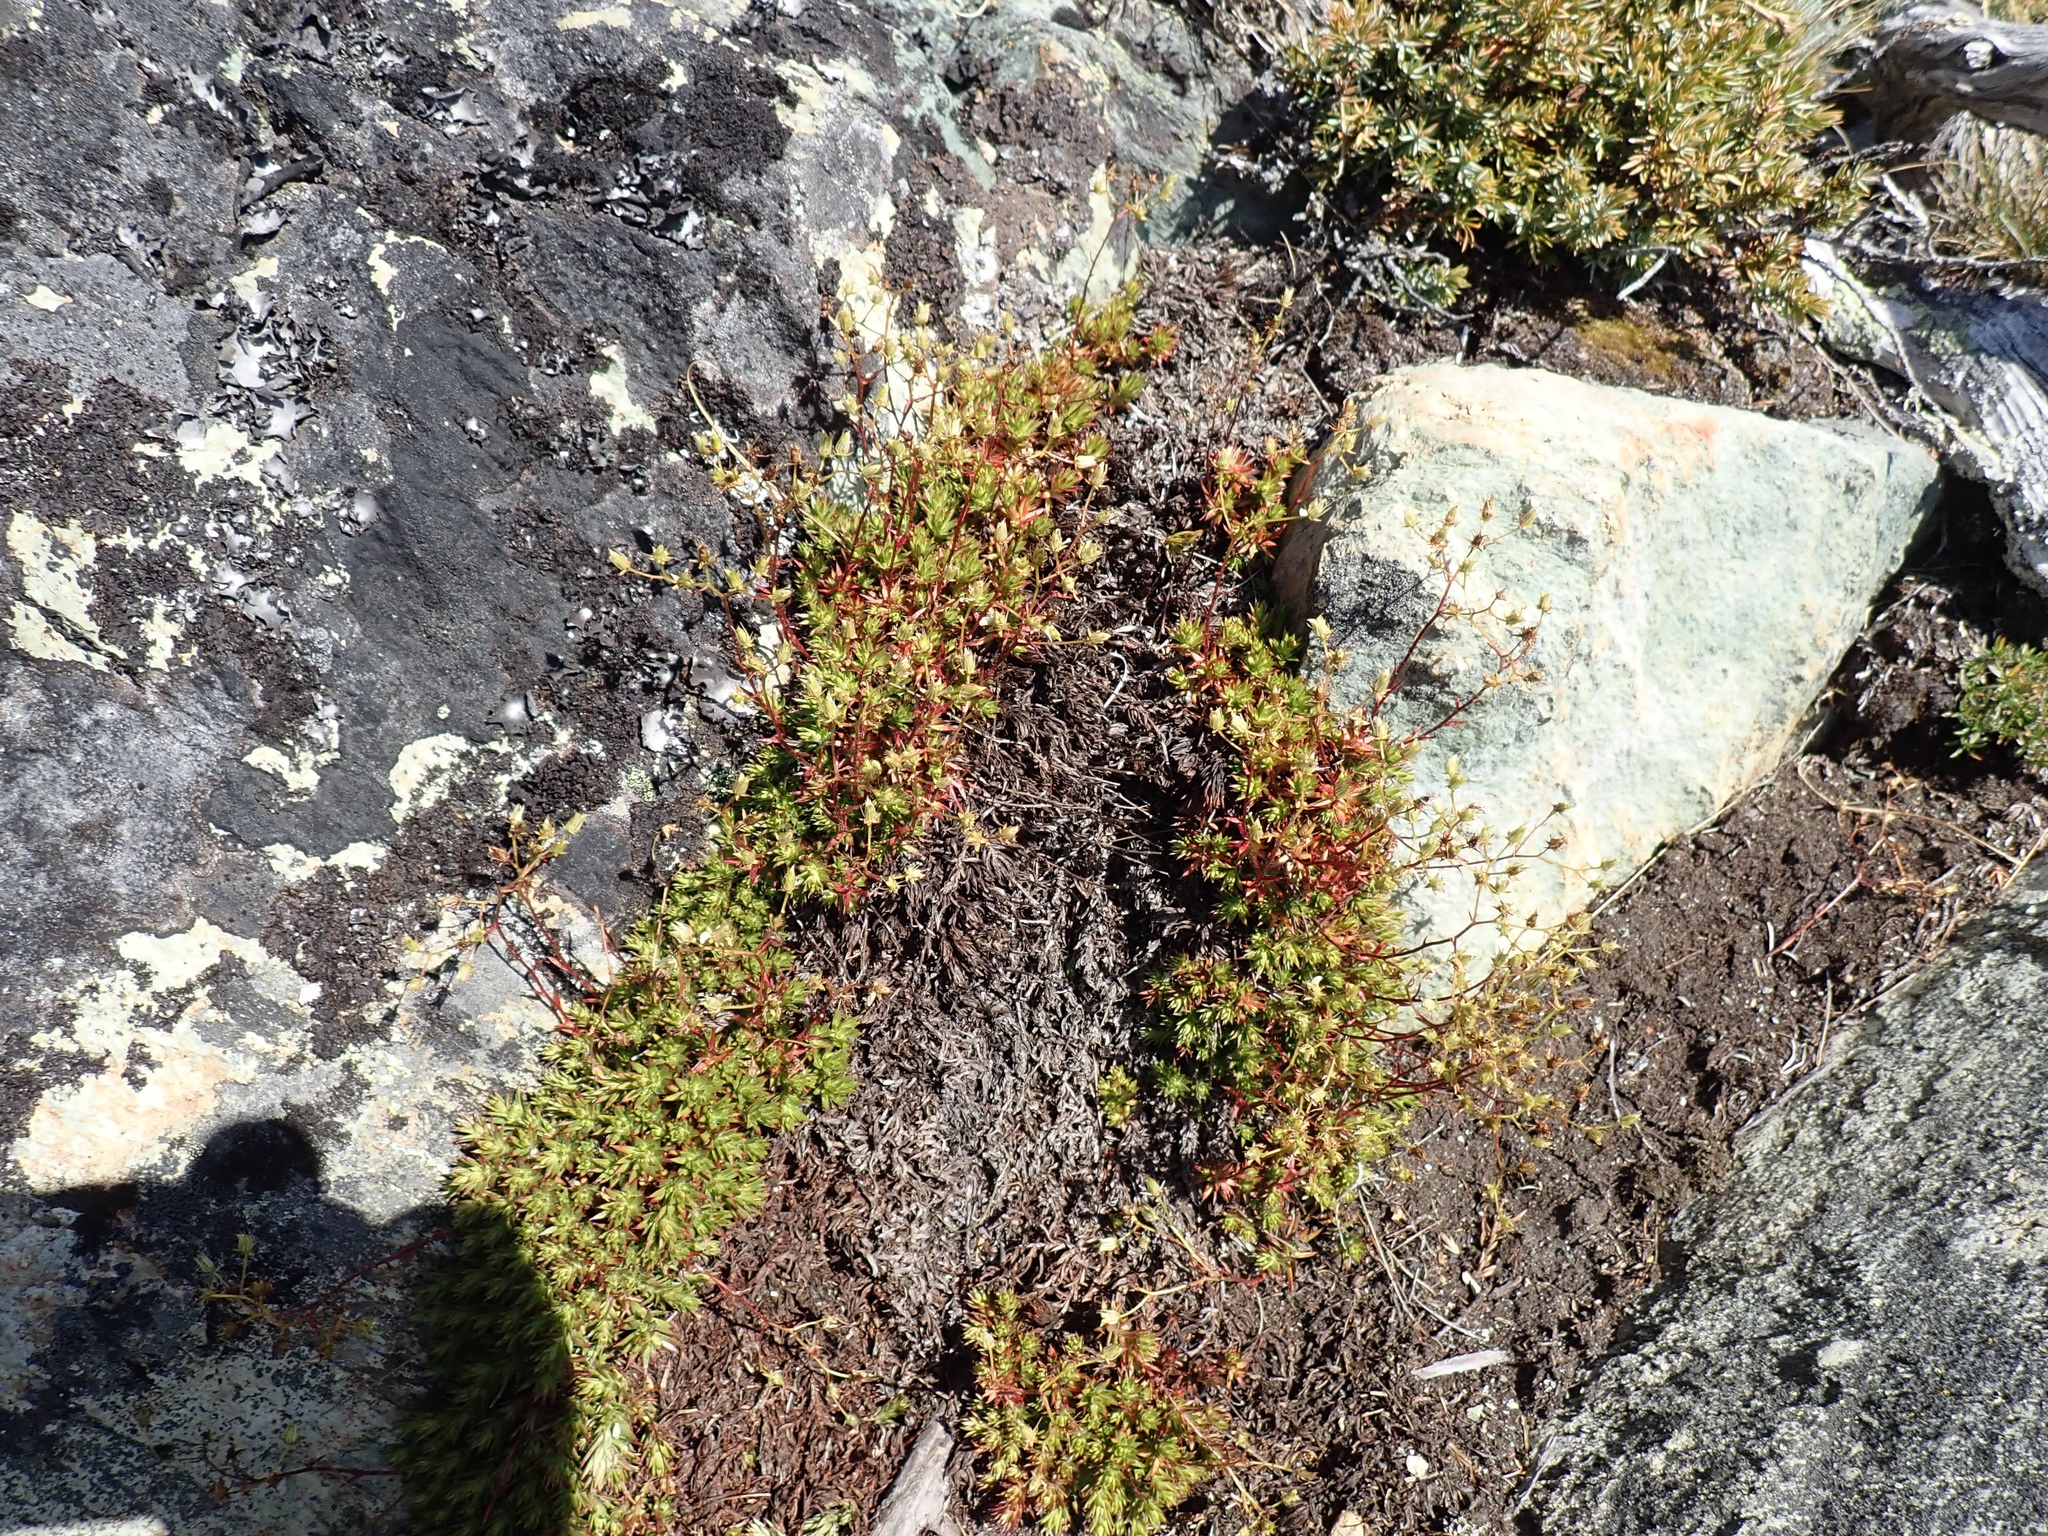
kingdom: Plantae
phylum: Tracheophyta
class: Magnoliopsida
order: Saxifragales
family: Saxifragaceae
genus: Saxifraga
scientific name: Saxifraga bronchialis
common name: Matted saxifrage
